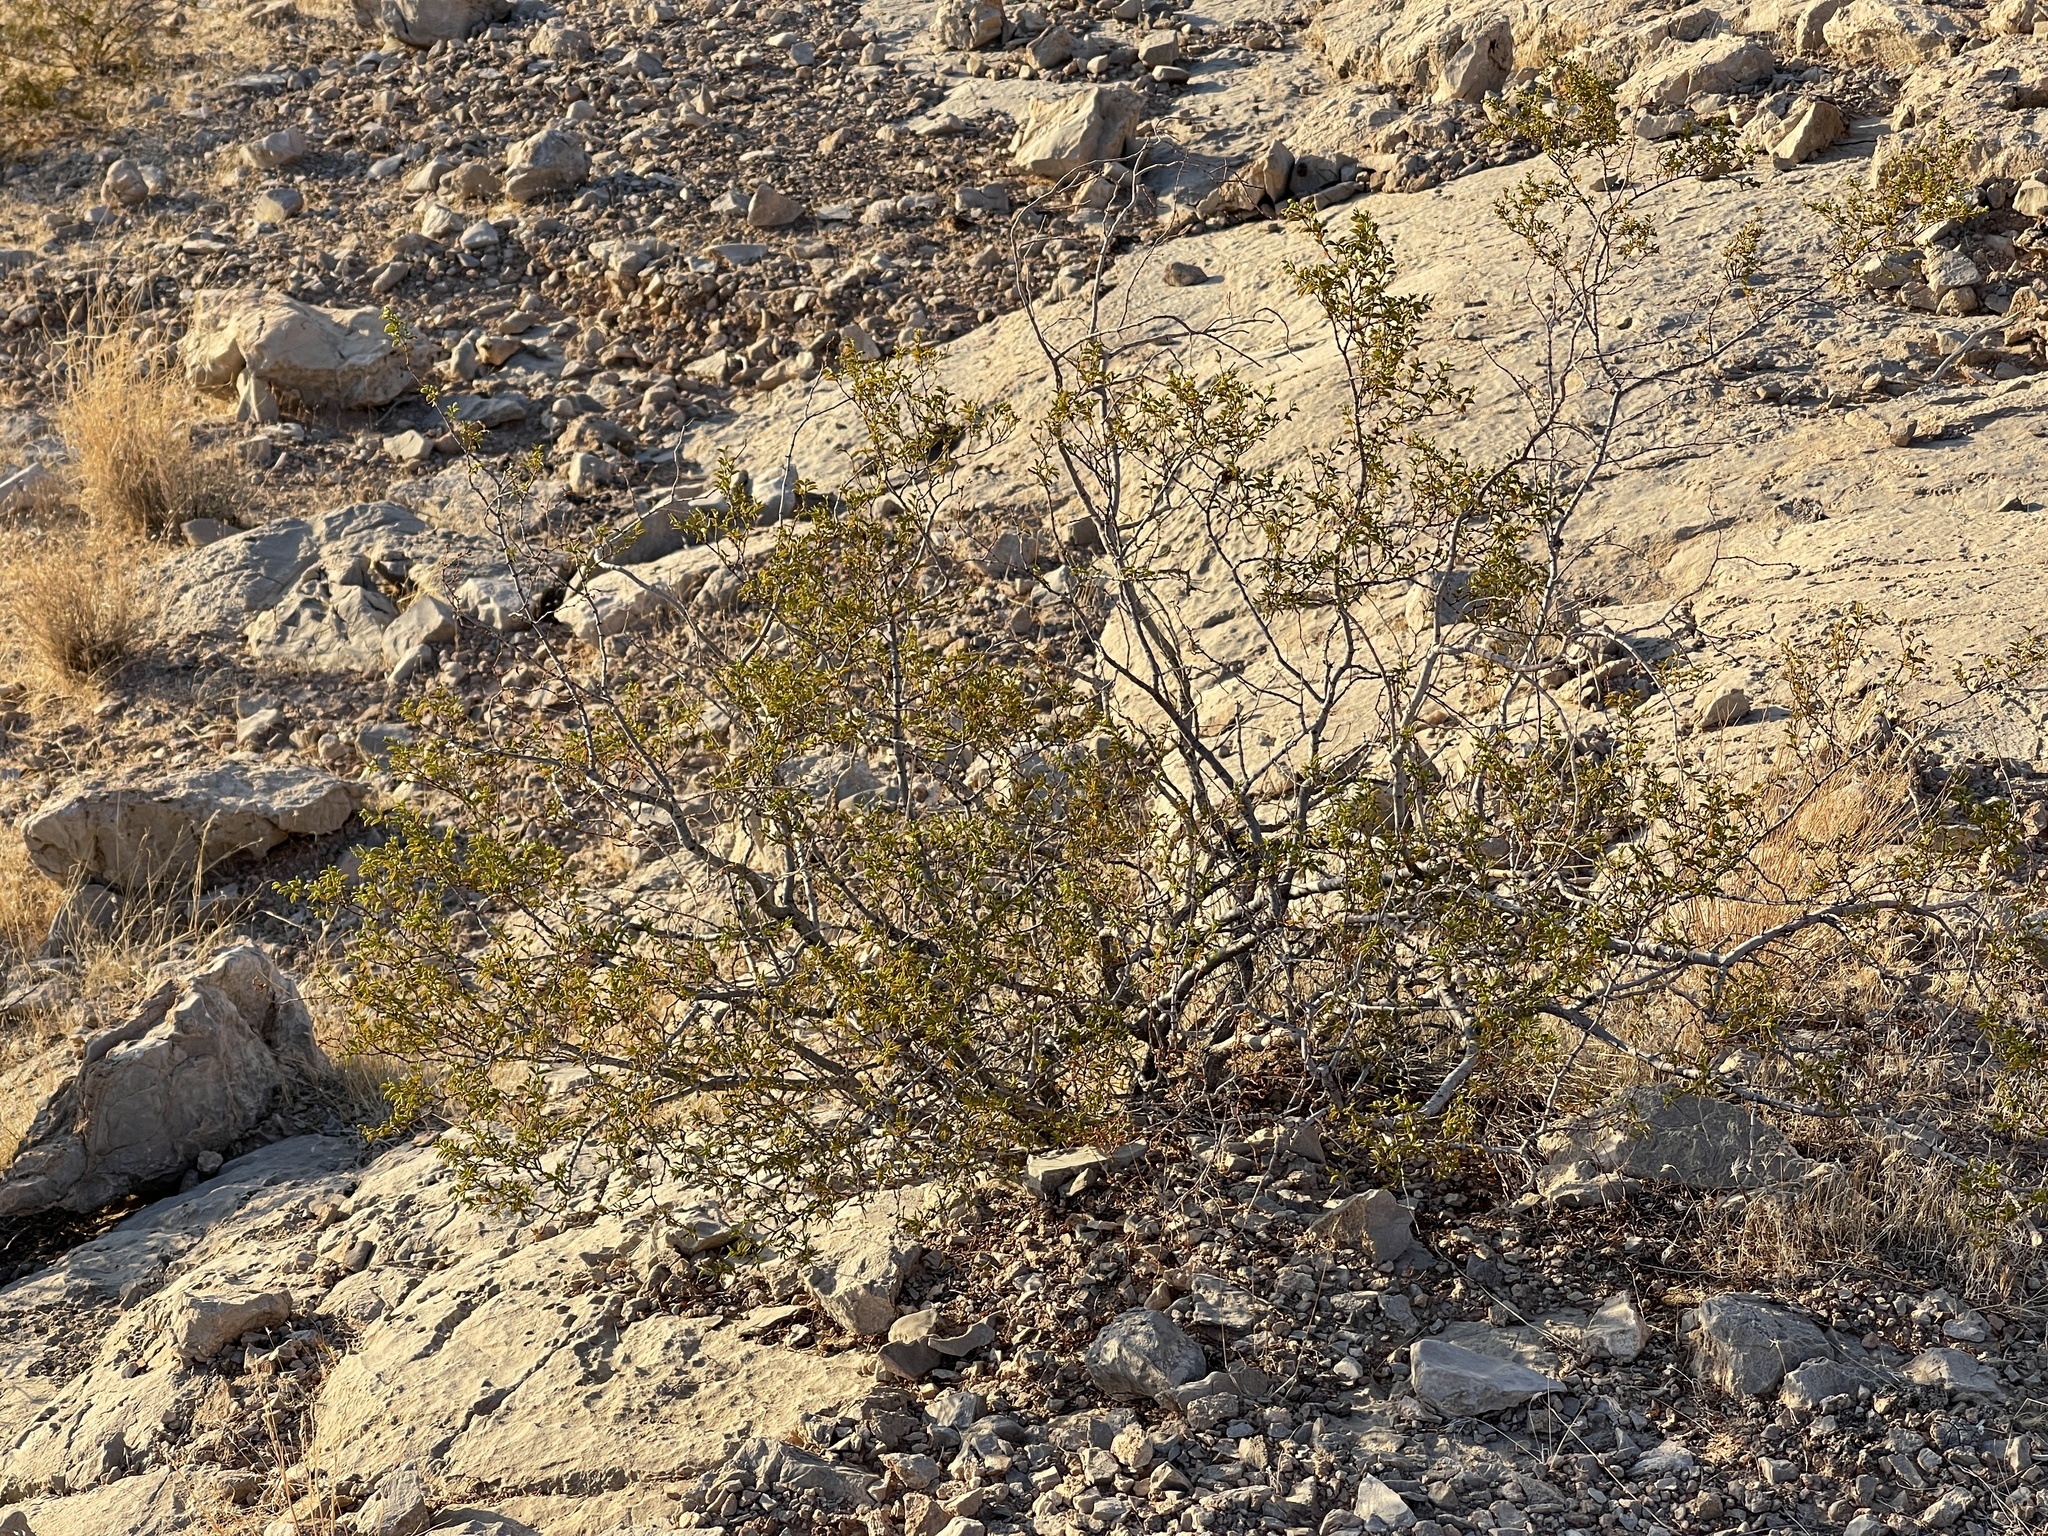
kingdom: Plantae
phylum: Tracheophyta
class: Magnoliopsida
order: Zygophyllales
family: Zygophyllaceae
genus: Larrea
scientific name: Larrea tridentata
